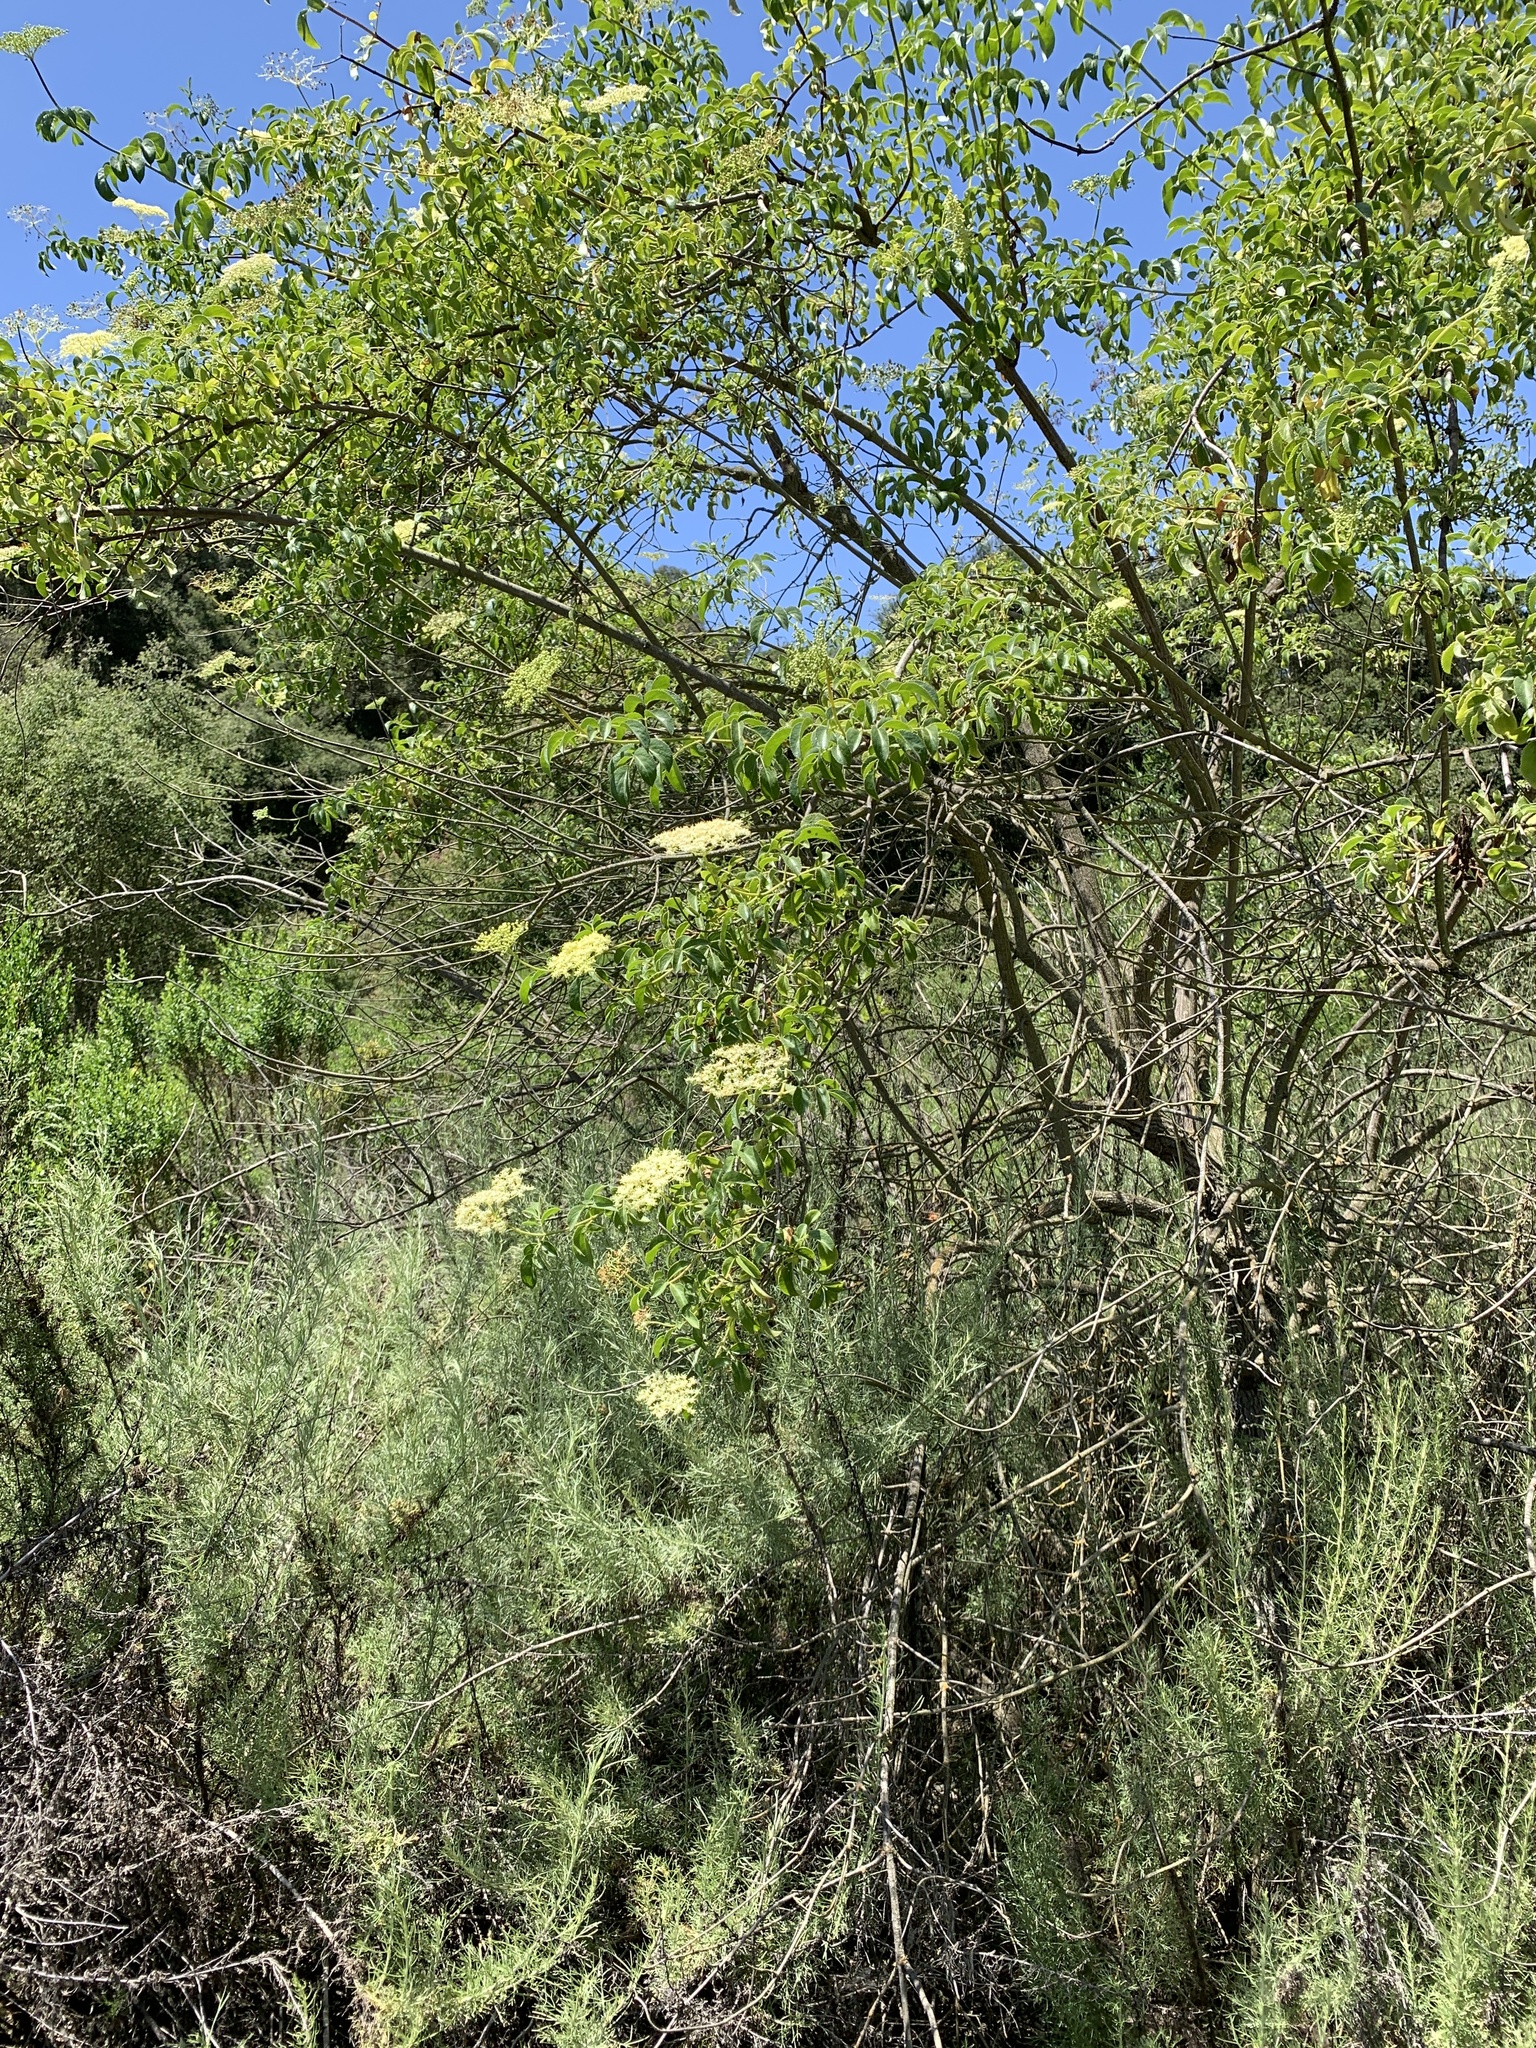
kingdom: Plantae
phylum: Tracheophyta
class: Magnoliopsida
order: Dipsacales
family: Viburnaceae
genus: Sambucus
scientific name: Sambucus cerulea
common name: Blue elder
